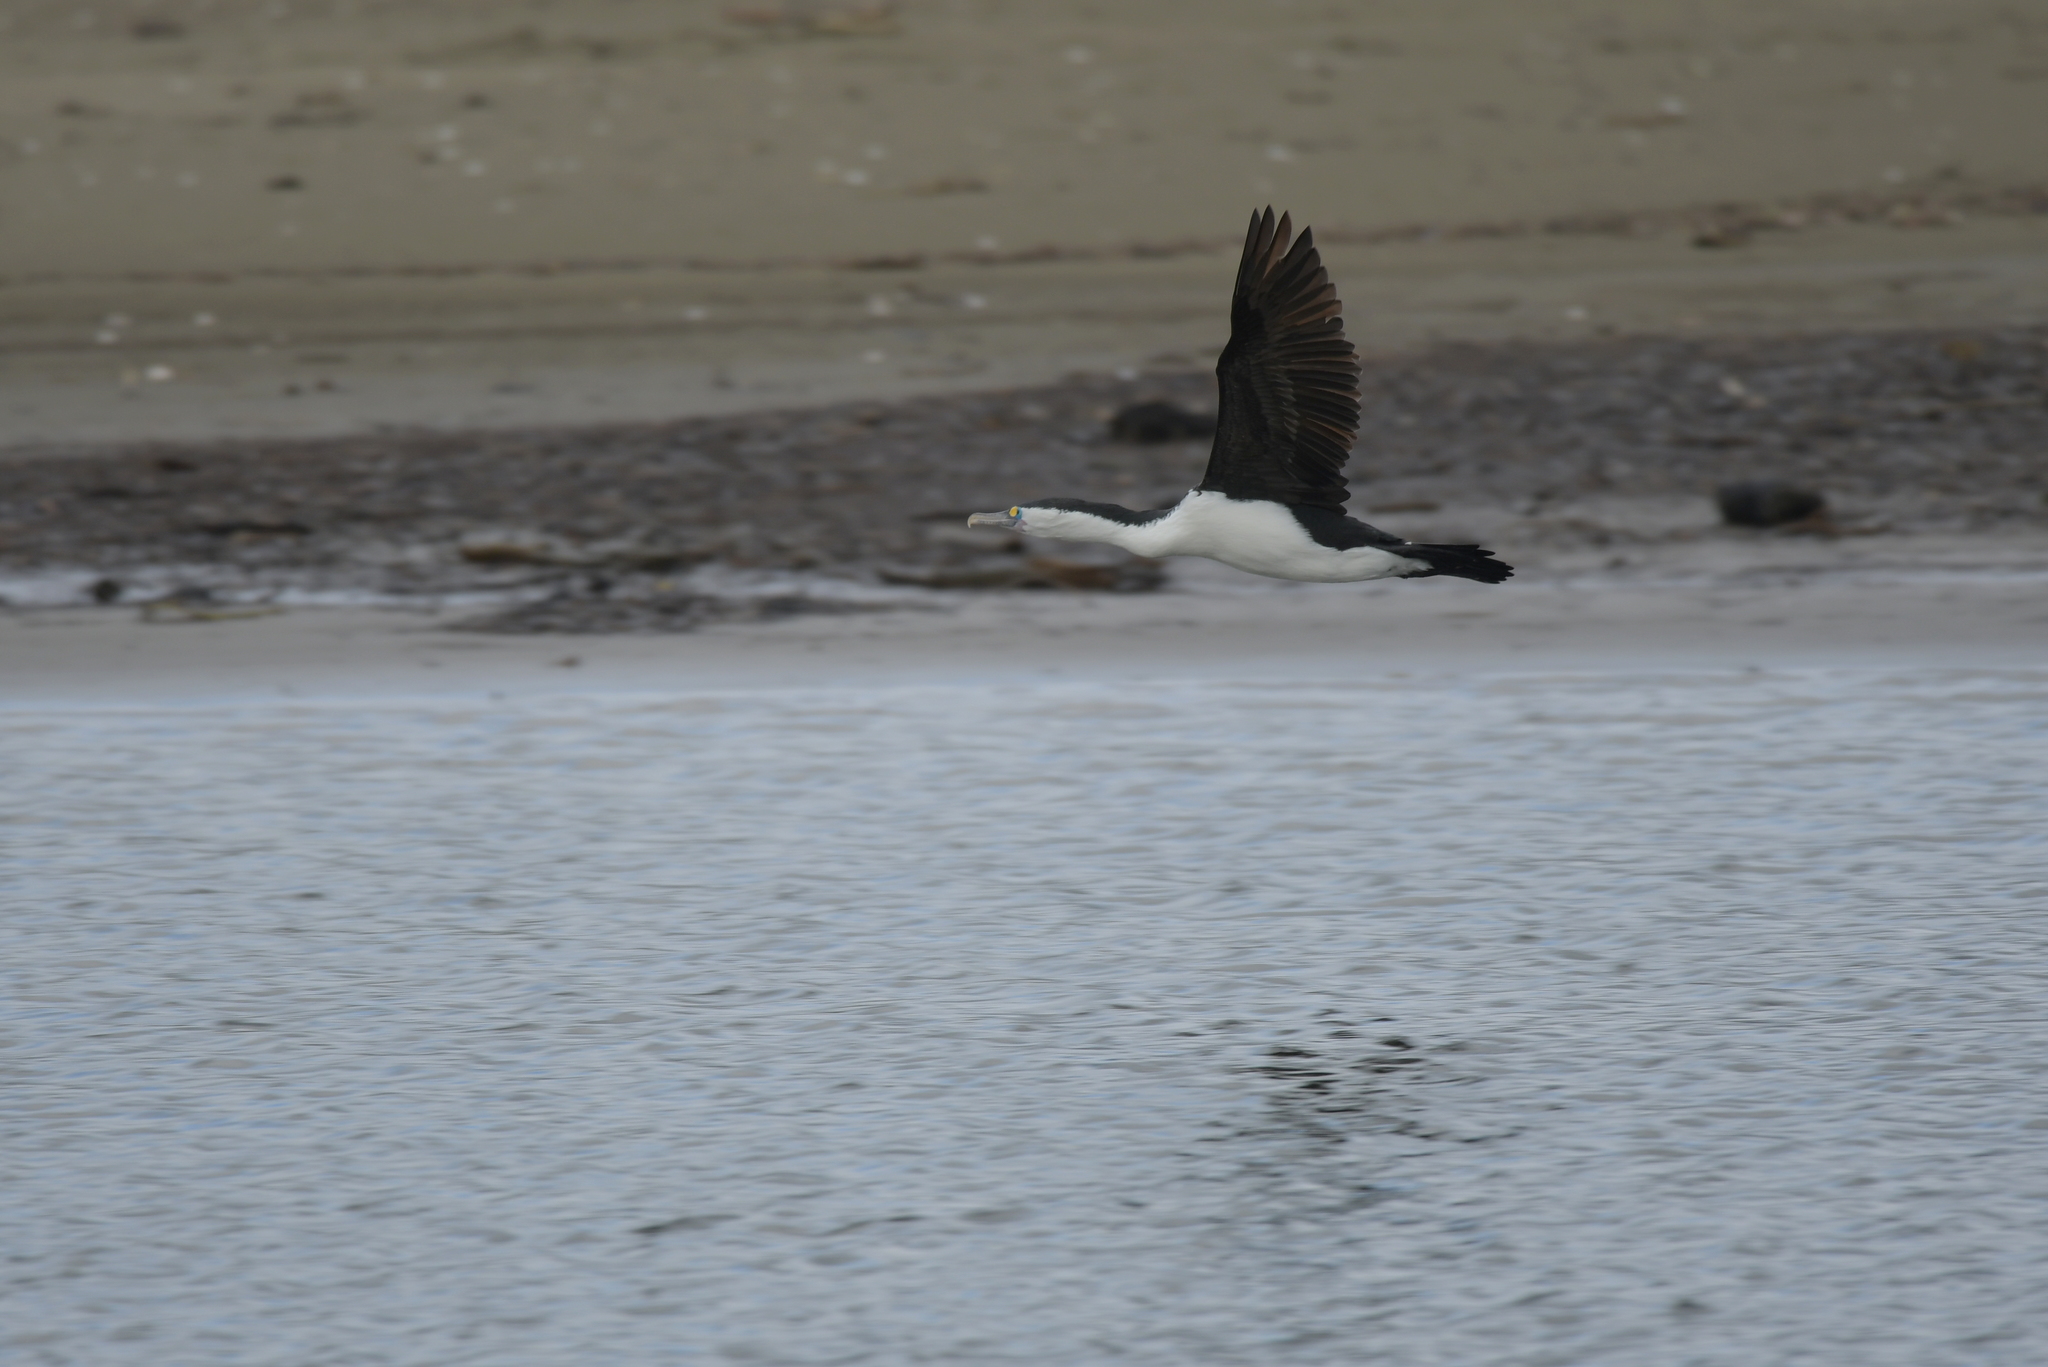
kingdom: Animalia
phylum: Chordata
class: Aves
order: Suliformes
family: Phalacrocoracidae
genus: Phalacrocorax
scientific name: Phalacrocorax varius
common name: Pied cormorant
